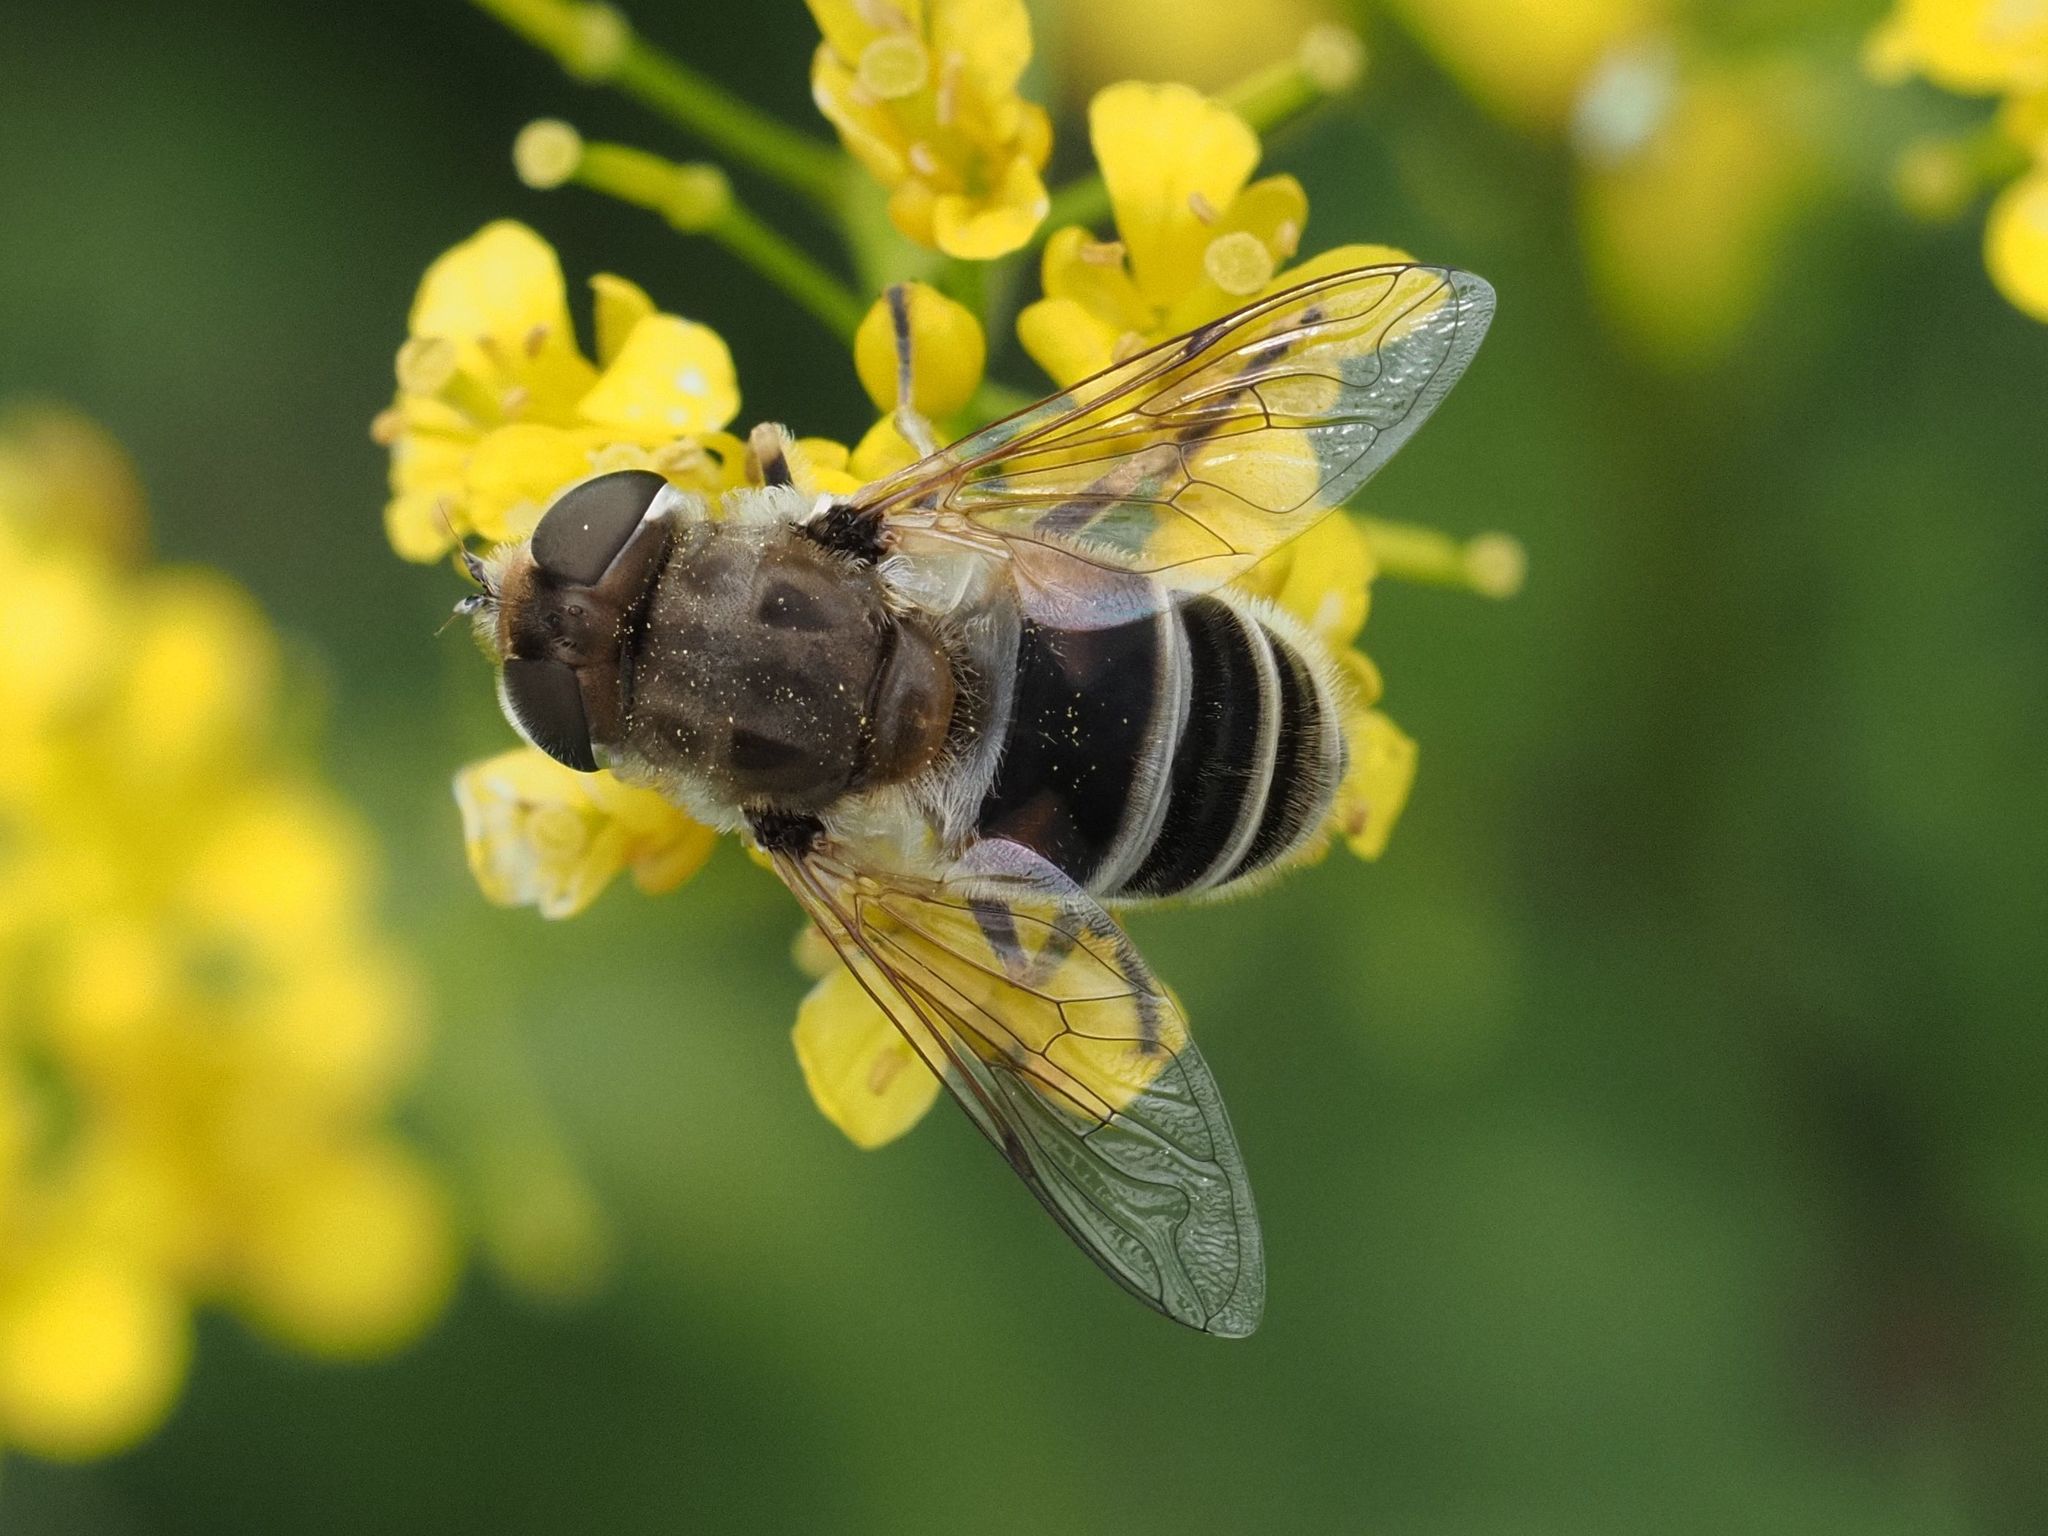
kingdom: Animalia
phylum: Arthropoda
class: Insecta
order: Diptera
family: Syrphidae
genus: Eristalis
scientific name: Eristalis arbustorum
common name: Hover fly
